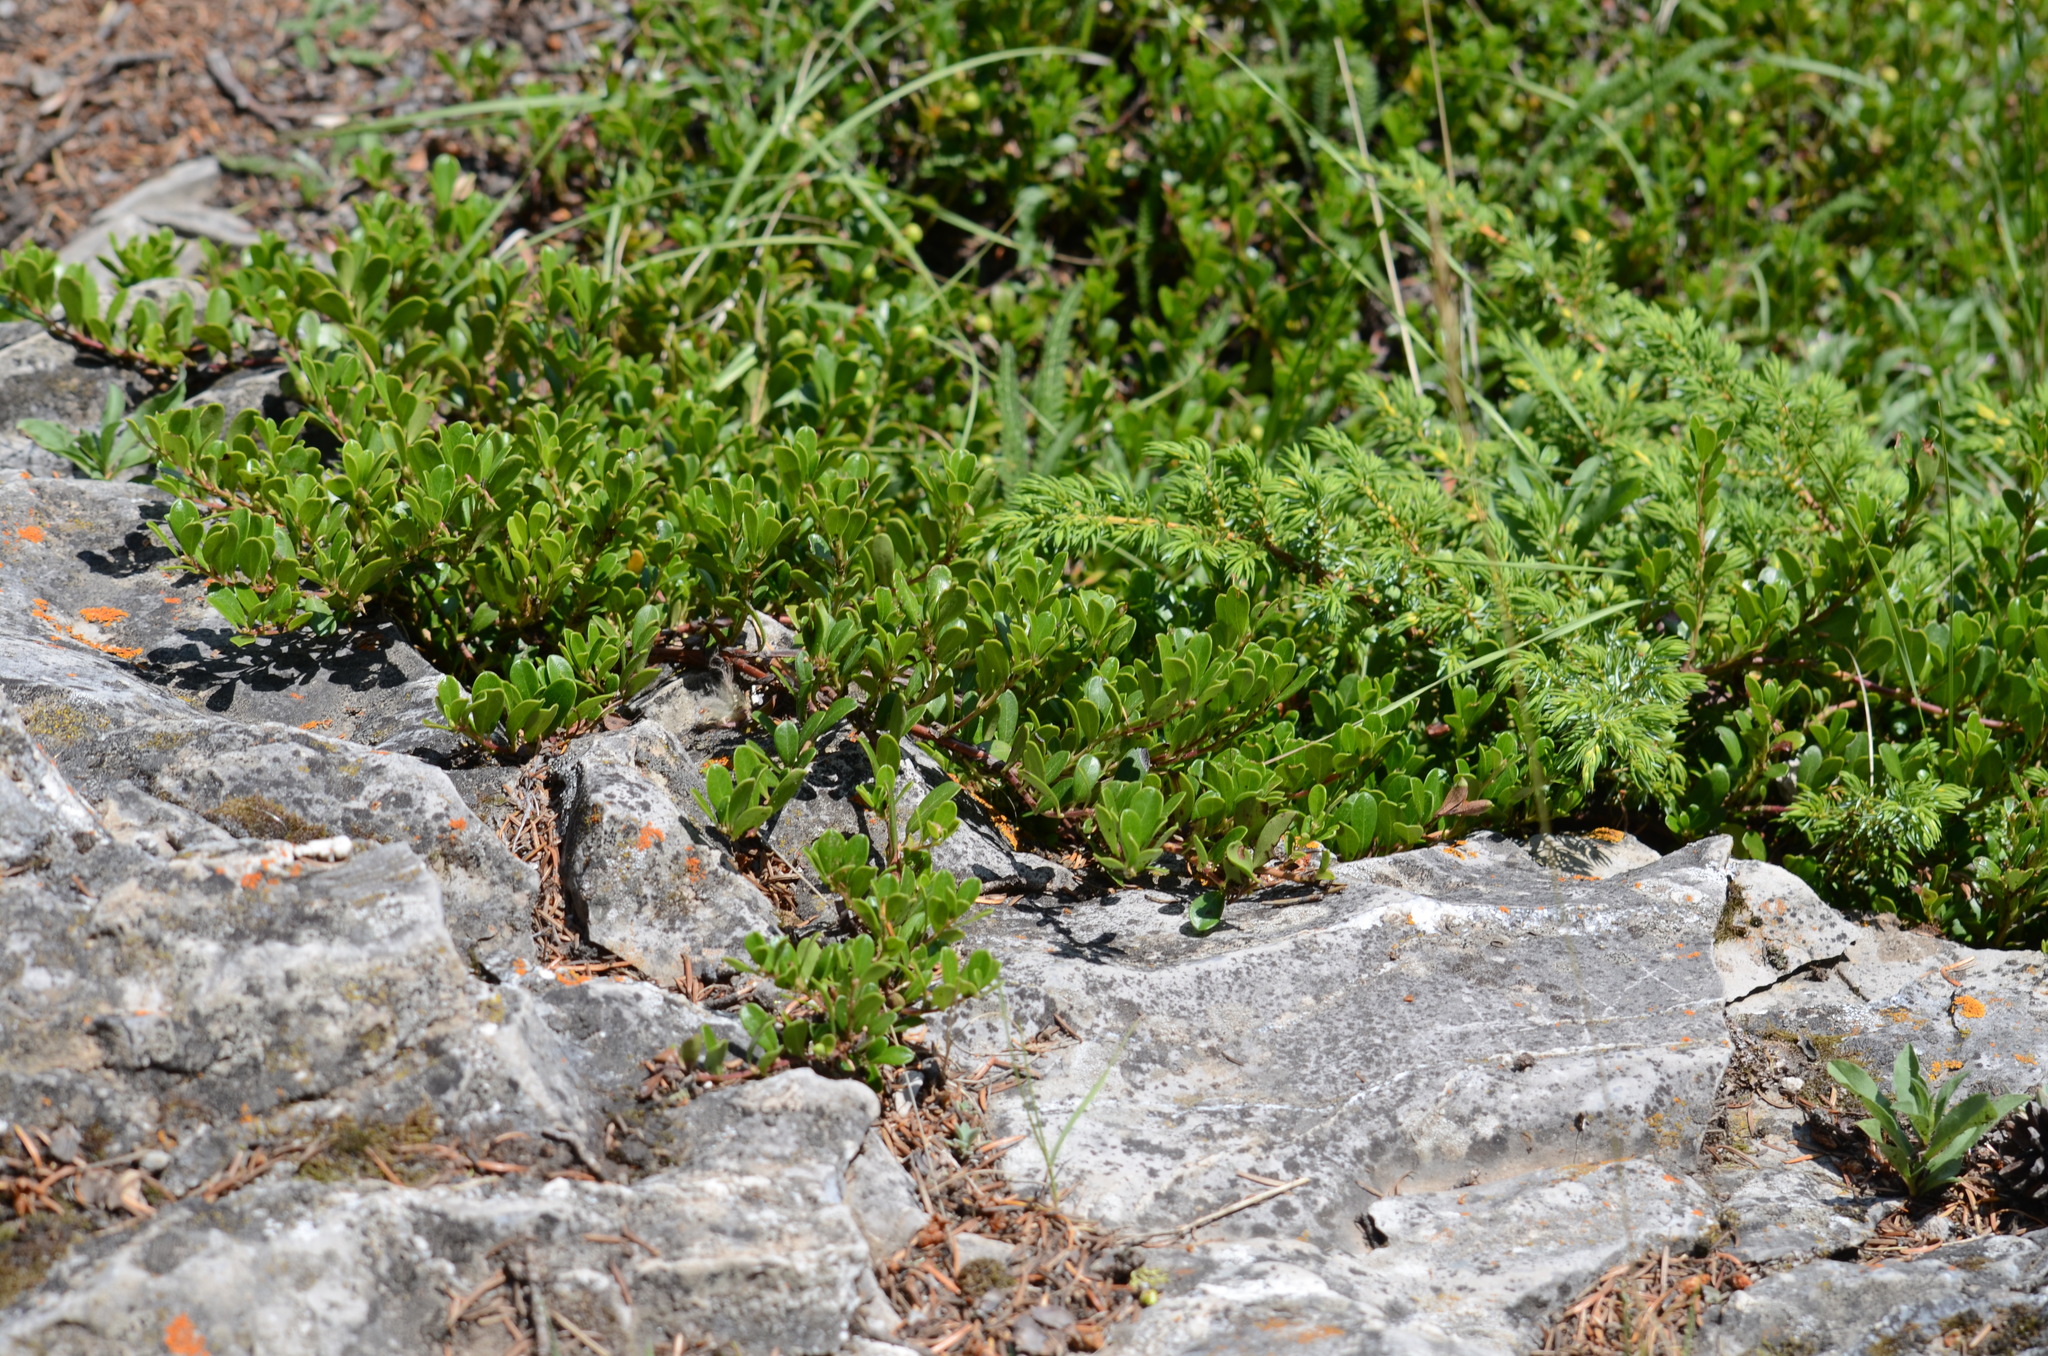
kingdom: Plantae
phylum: Tracheophyta
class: Magnoliopsida
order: Ericales
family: Ericaceae
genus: Arctostaphylos
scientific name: Arctostaphylos uva-ursi
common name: Bearberry
